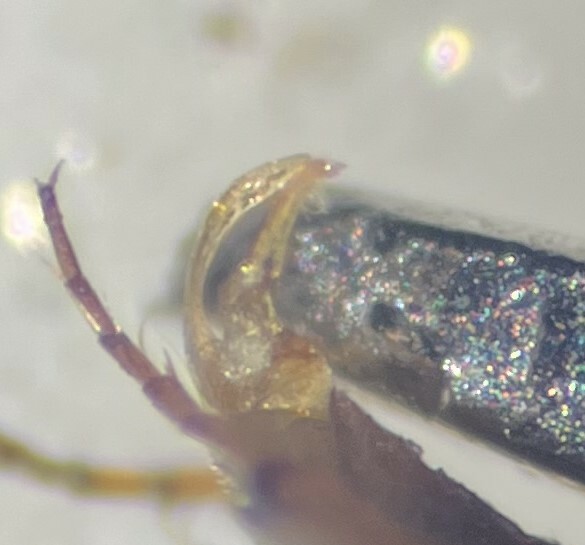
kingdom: Animalia
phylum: Arthropoda
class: Insecta
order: Coleoptera
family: Dytiscidae
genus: Liodessus
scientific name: Liodessus obscurellus
